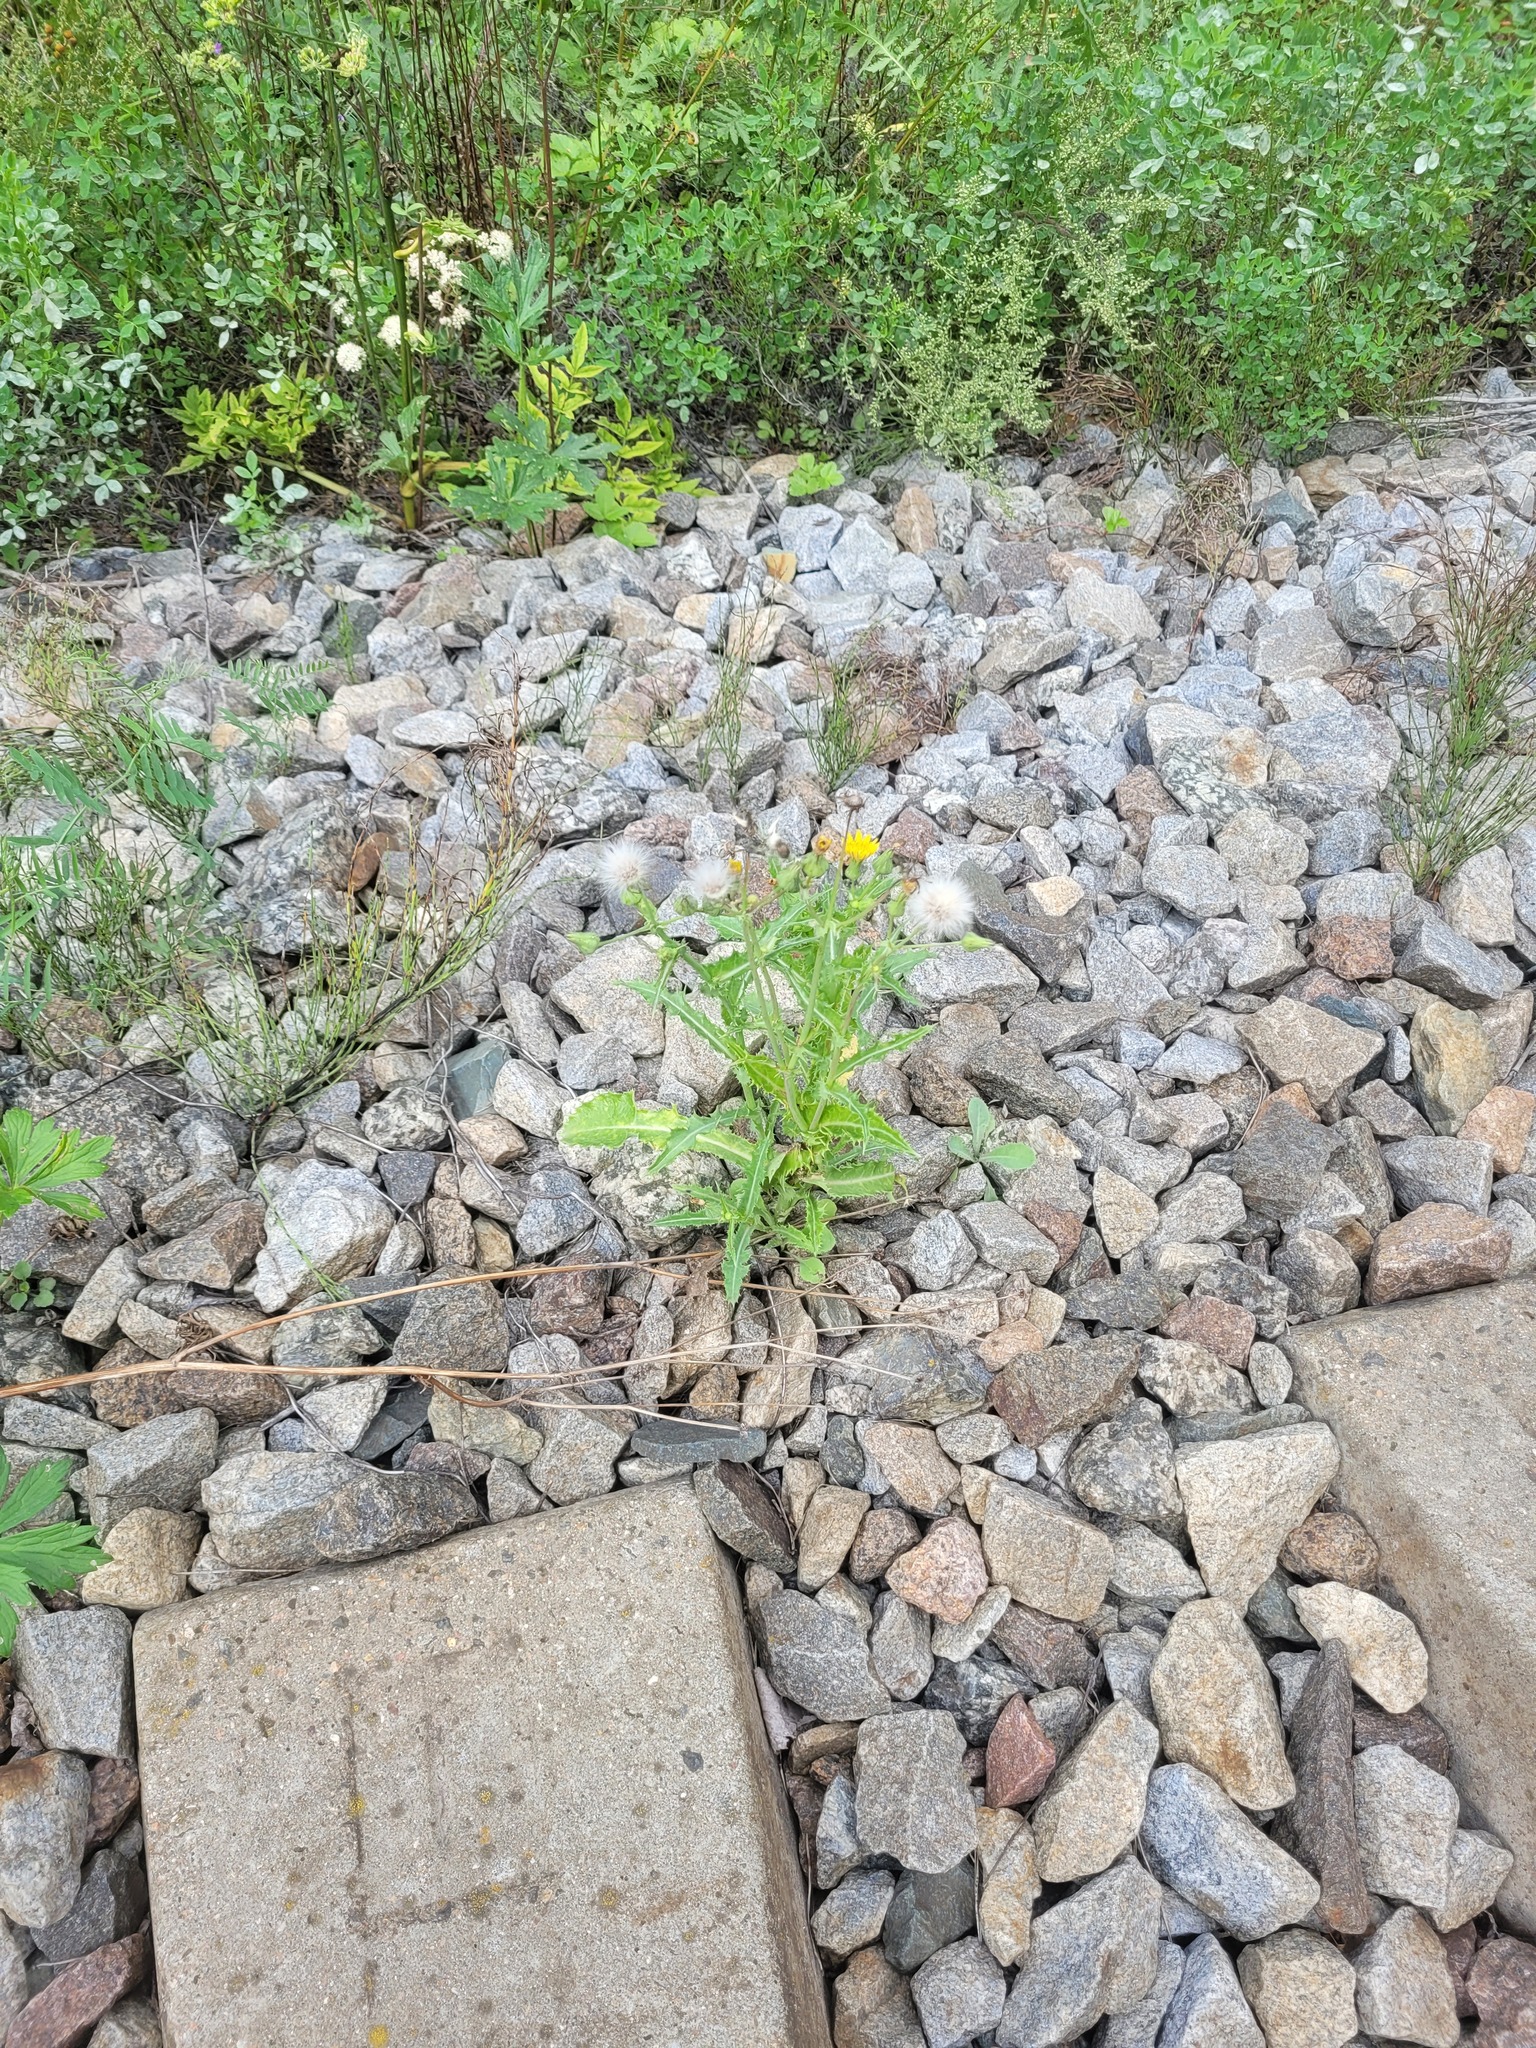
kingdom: Plantae
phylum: Tracheophyta
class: Magnoliopsida
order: Asterales
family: Asteraceae
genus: Sonchus
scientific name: Sonchus asper
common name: Prickly sow-thistle
